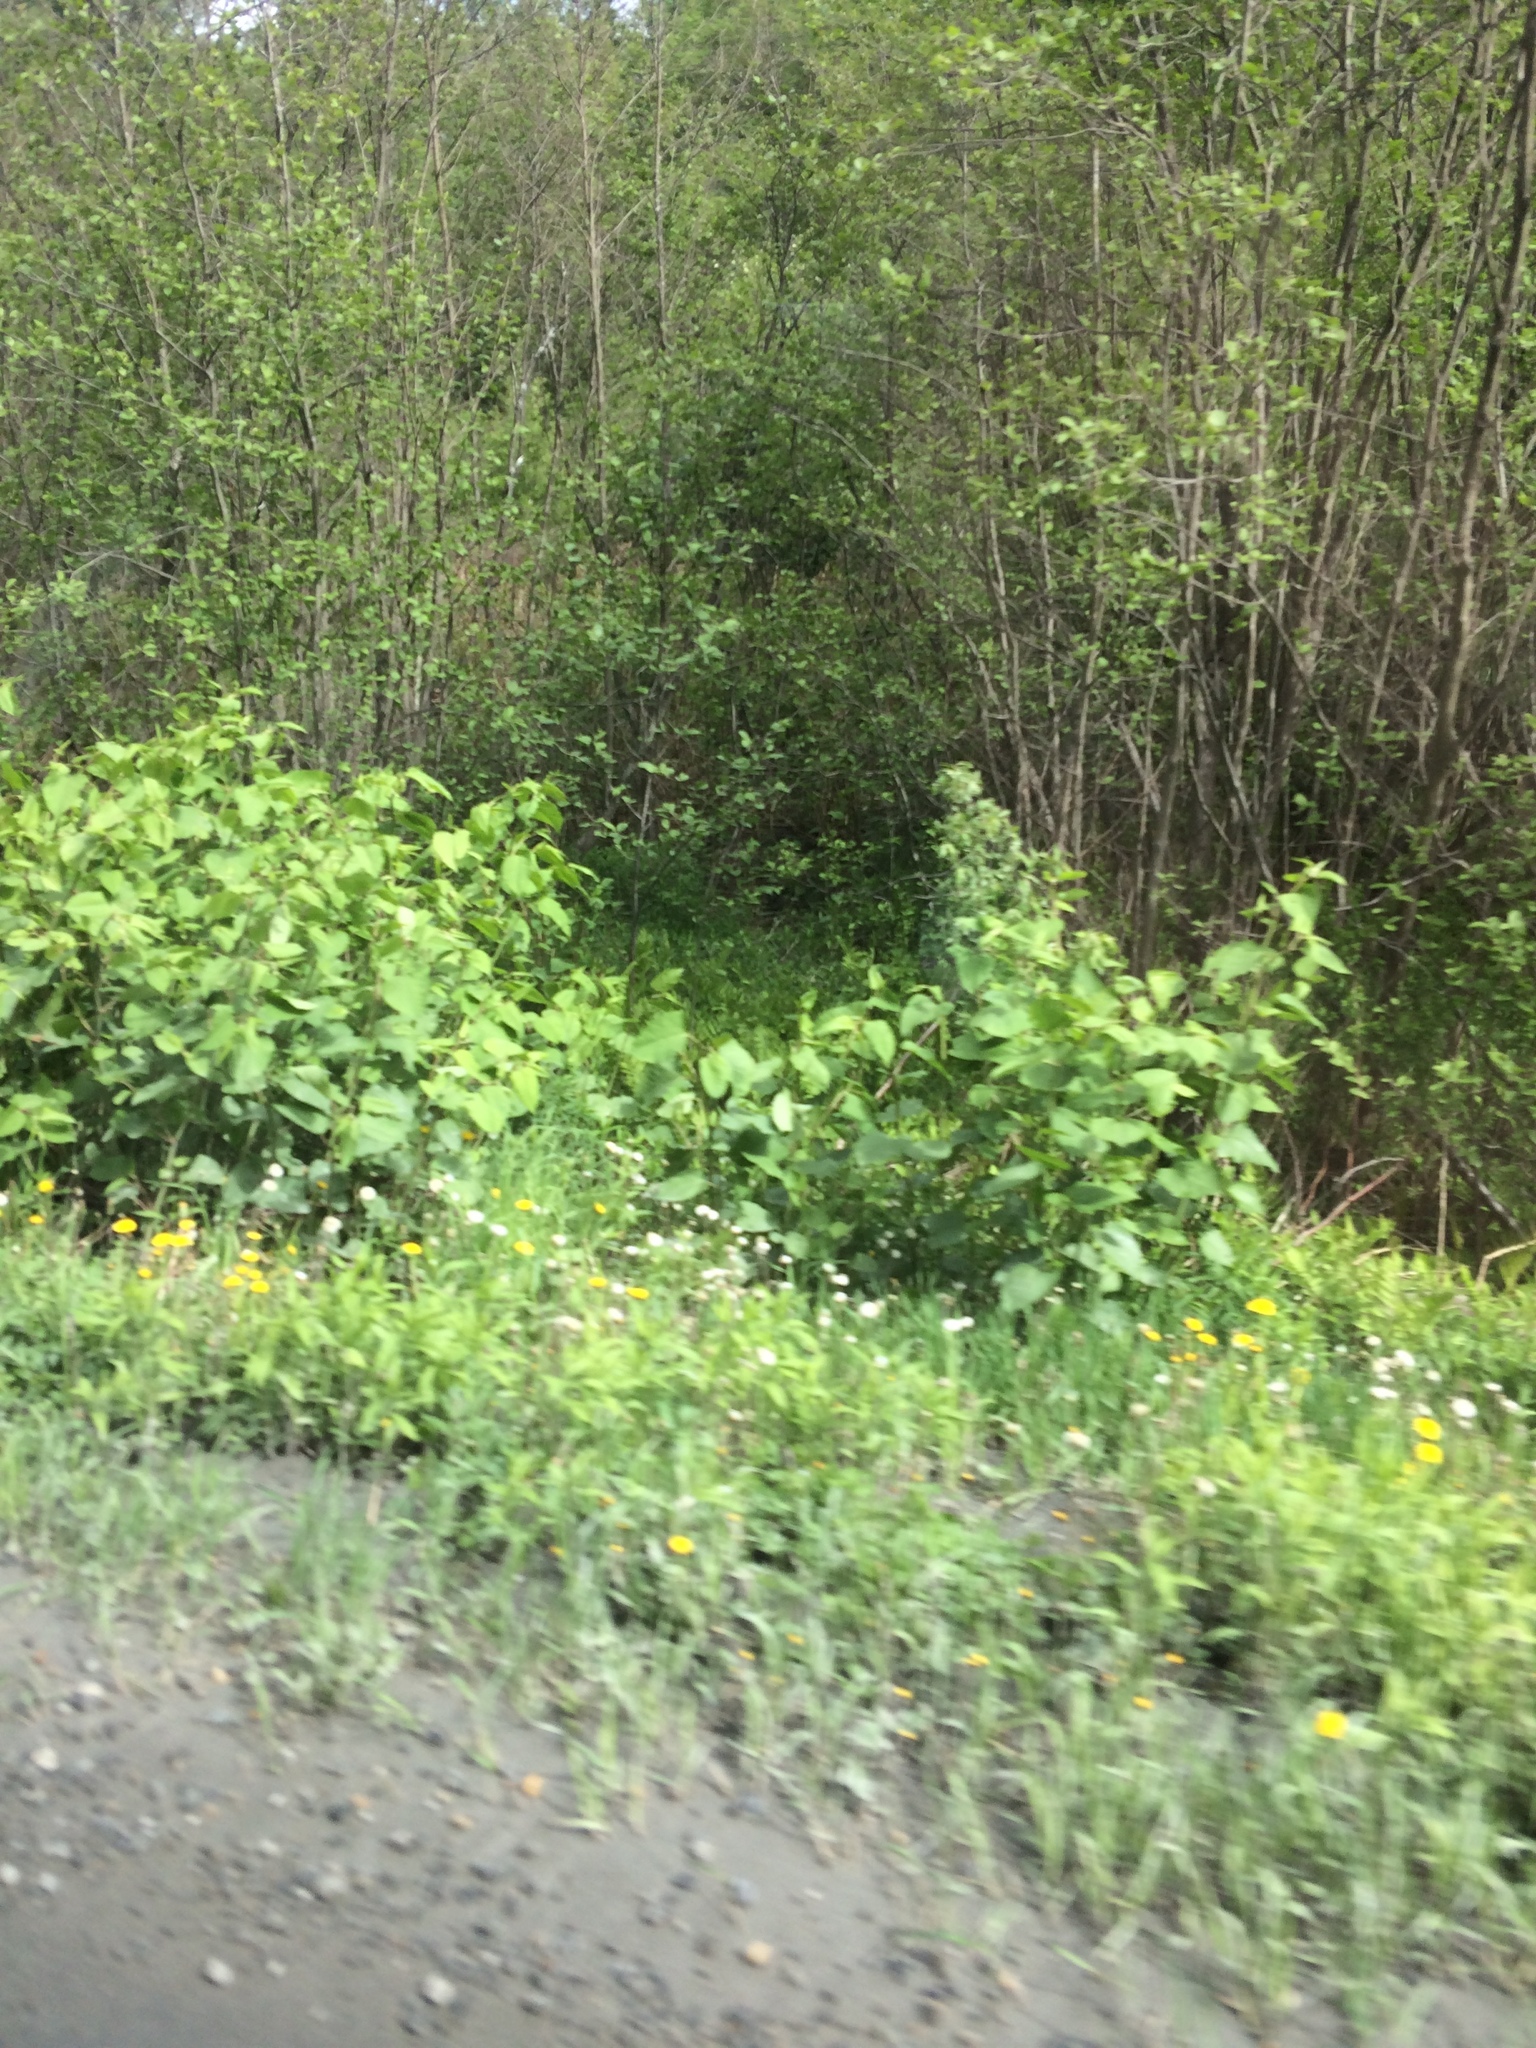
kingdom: Plantae
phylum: Tracheophyta
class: Magnoliopsida
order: Caryophyllales
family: Polygonaceae
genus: Reynoutria
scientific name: Reynoutria japonica
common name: Japanese knotweed
